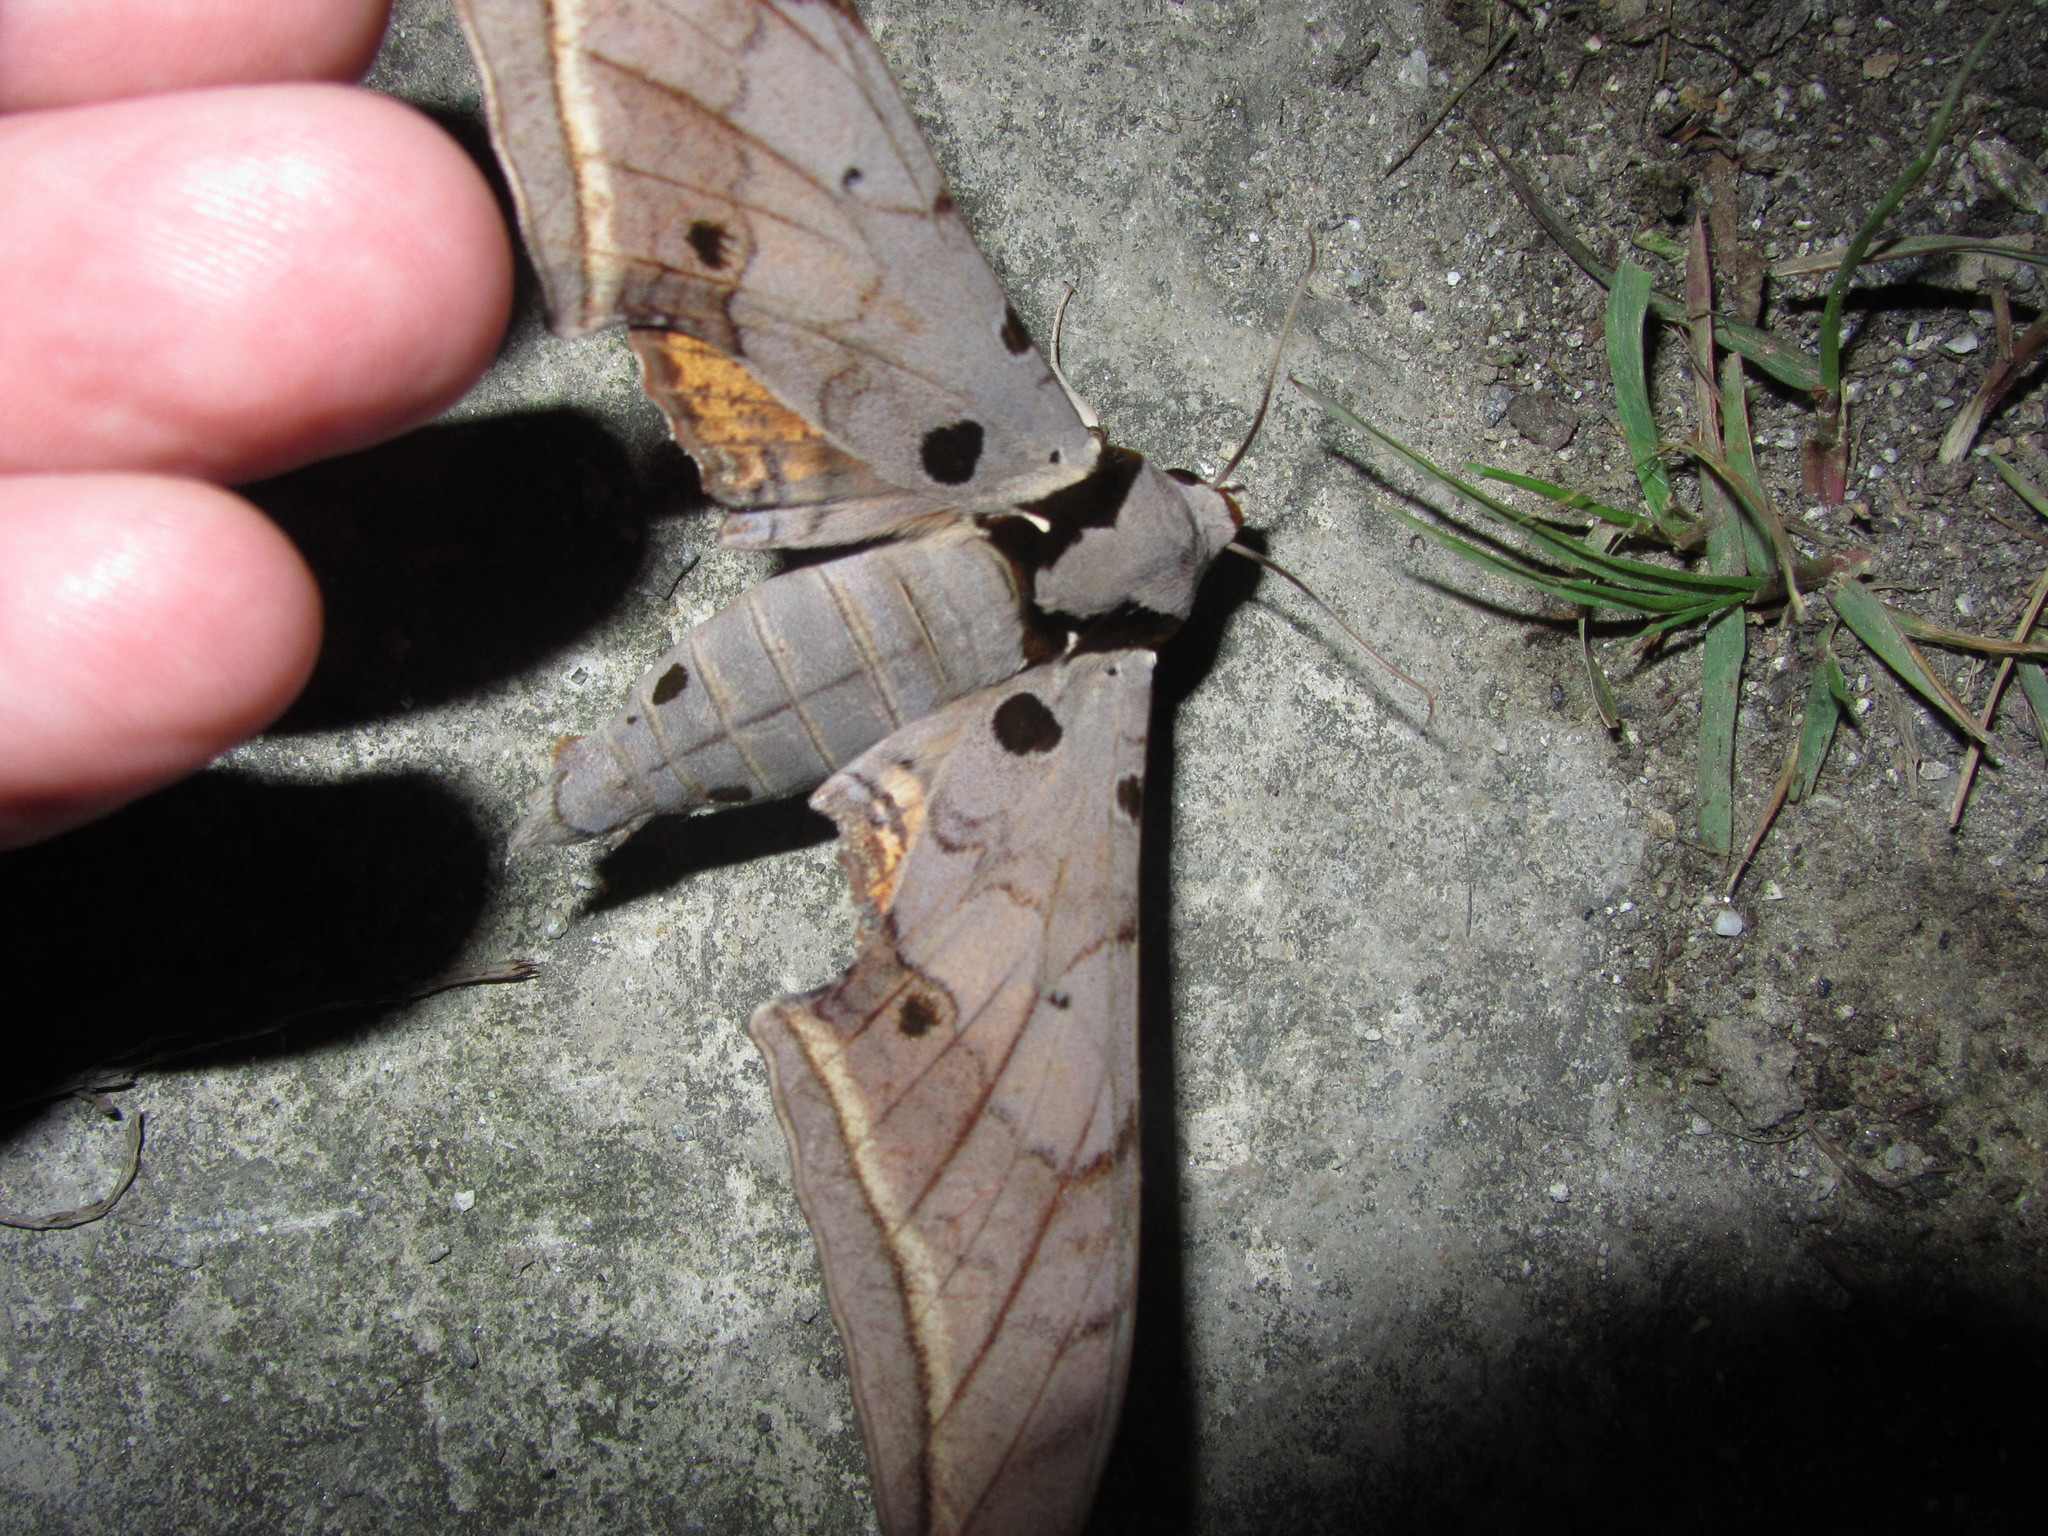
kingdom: Animalia
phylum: Arthropoda
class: Insecta
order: Lepidoptera
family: Sphingidae
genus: Ambulyx
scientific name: Ambulyx sericeipennis
